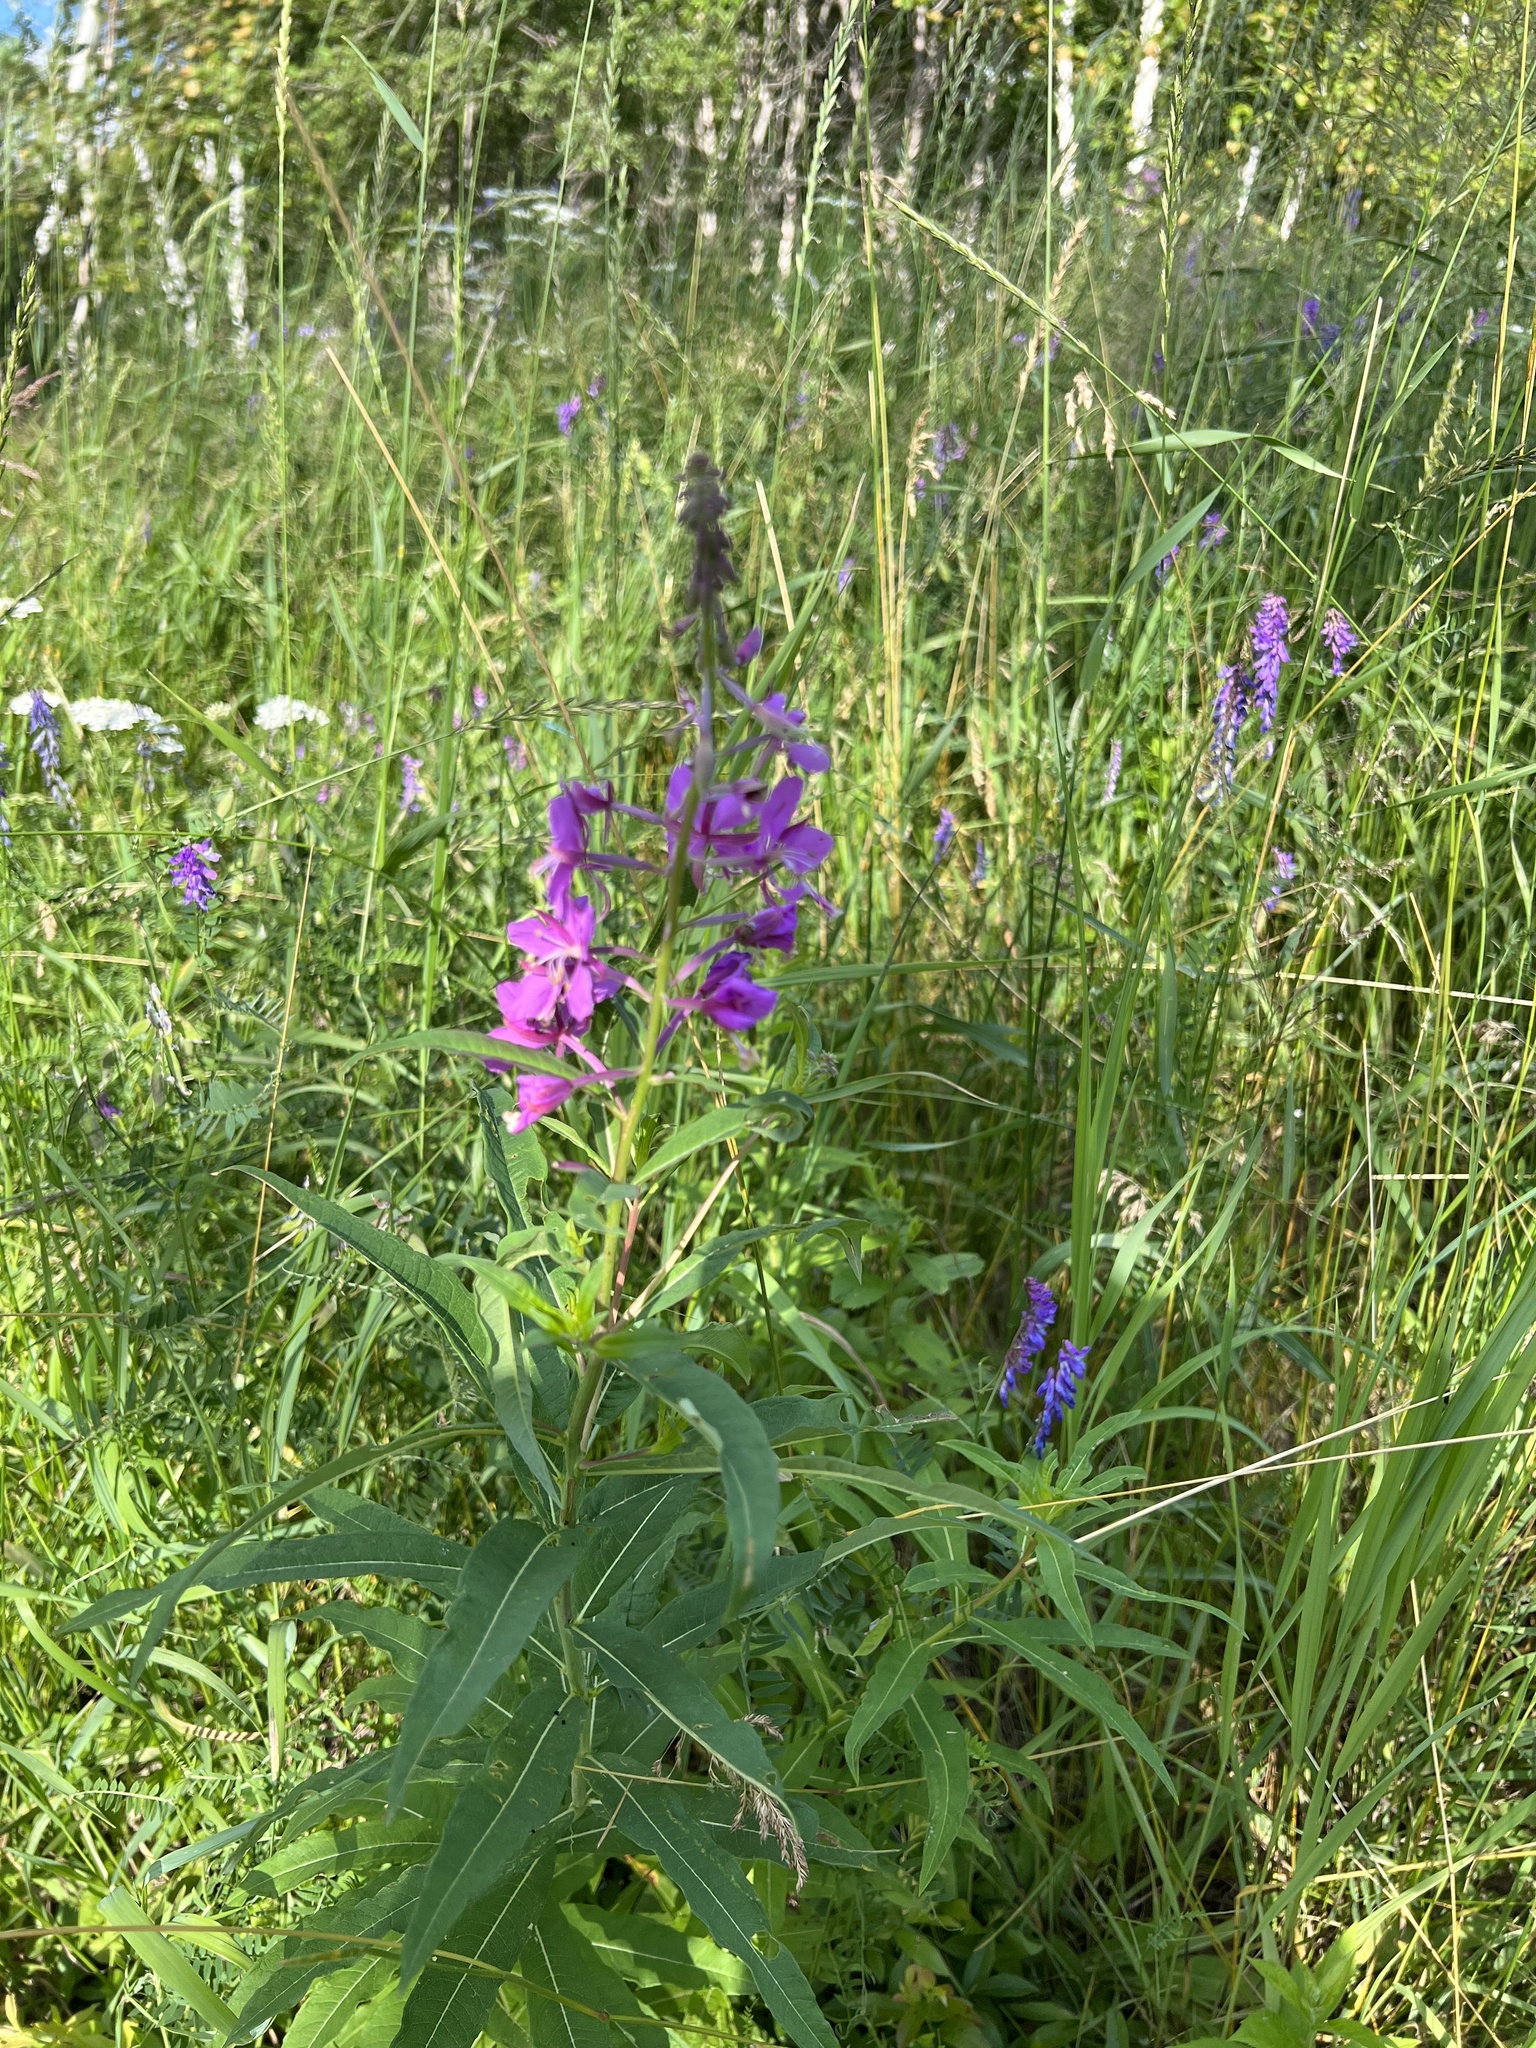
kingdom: Plantae
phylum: Tracheophyta
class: Magnoliopsida
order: Myrtales
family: Onagraceae
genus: Chamaenerion
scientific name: Chamaenerion angustifolium
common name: Fireweed
